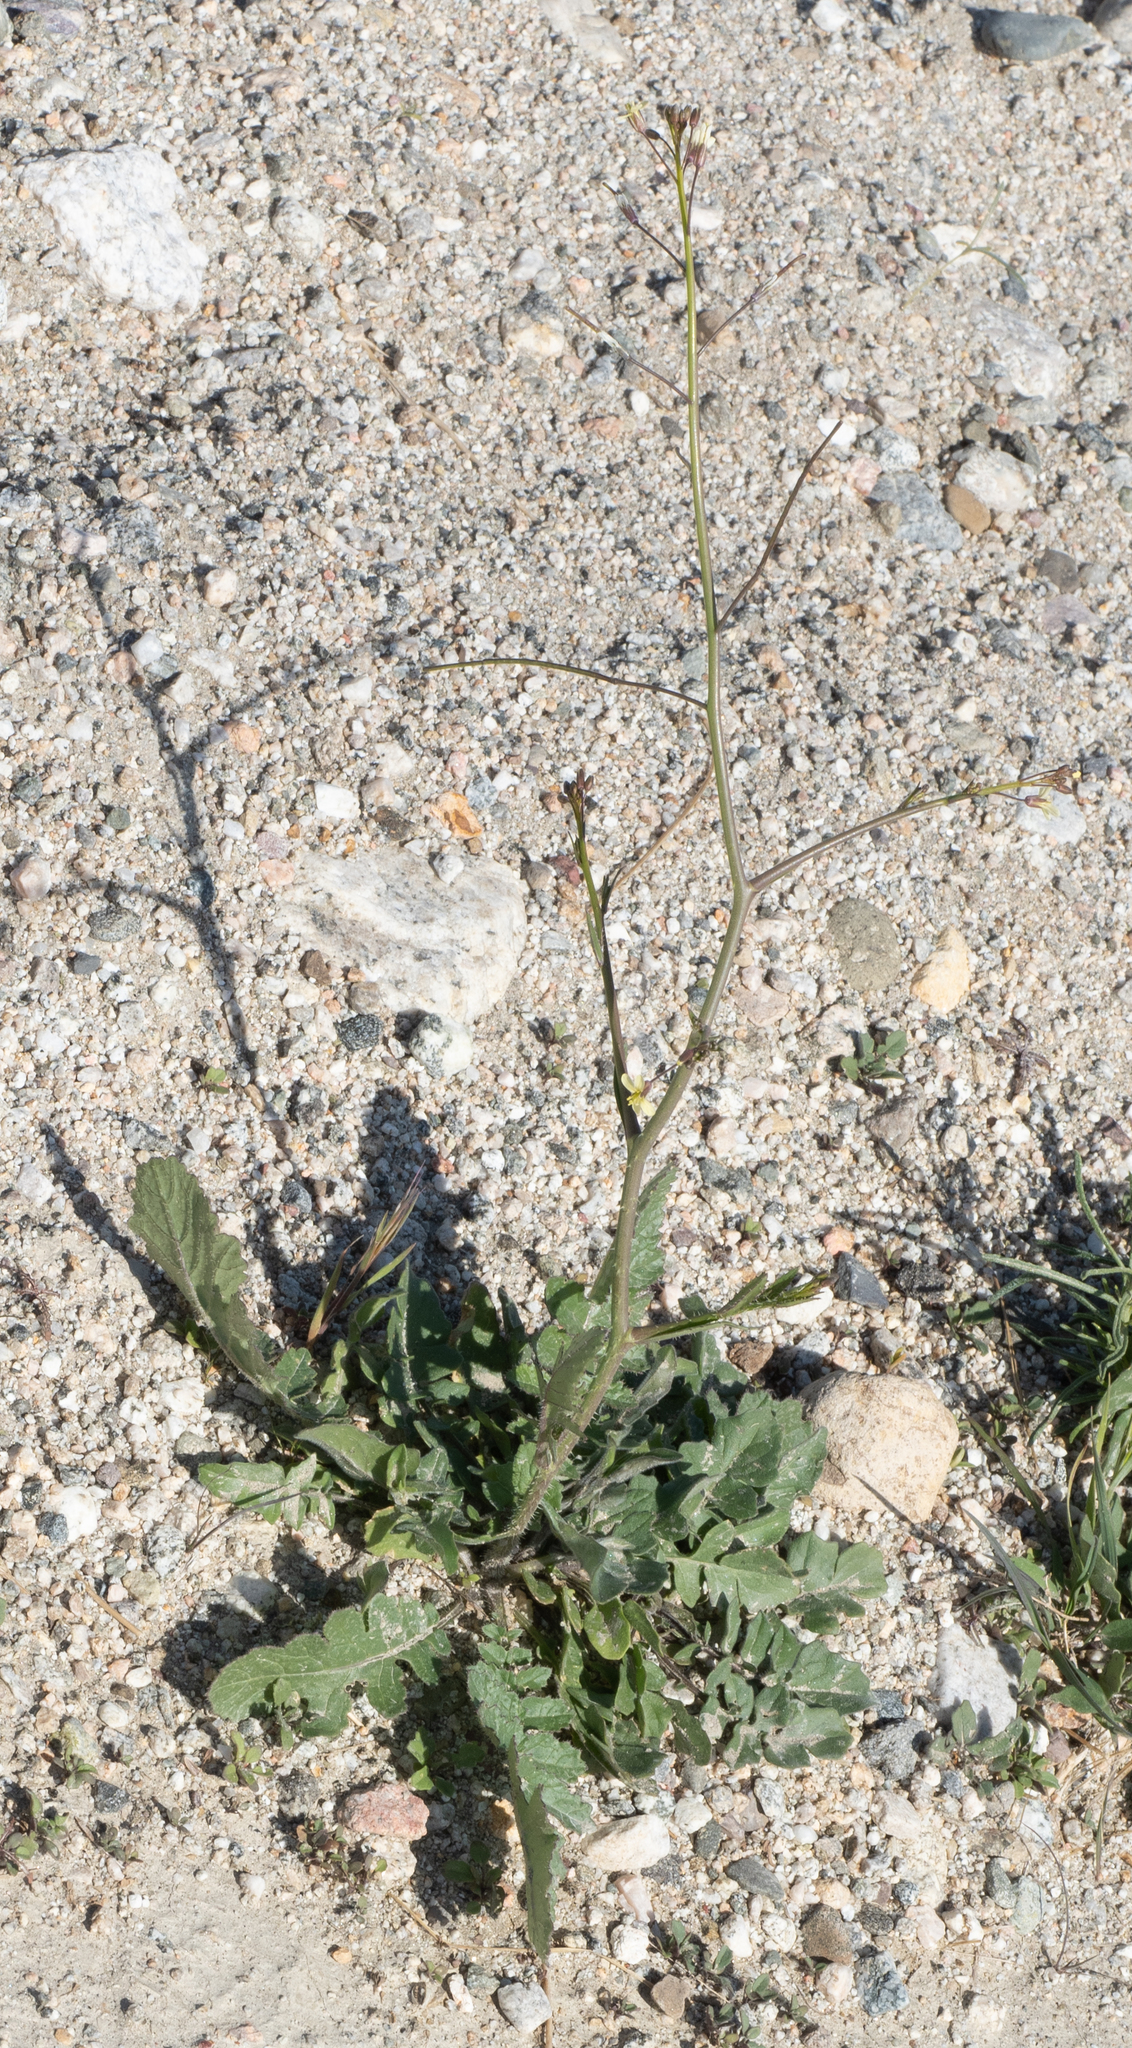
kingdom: Plantae
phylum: Tracheophyta
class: Magnoliopsida
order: Brassicales
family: Brassicaceae
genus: Brassica
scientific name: Brassica tournefortii
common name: Pale cabbage
